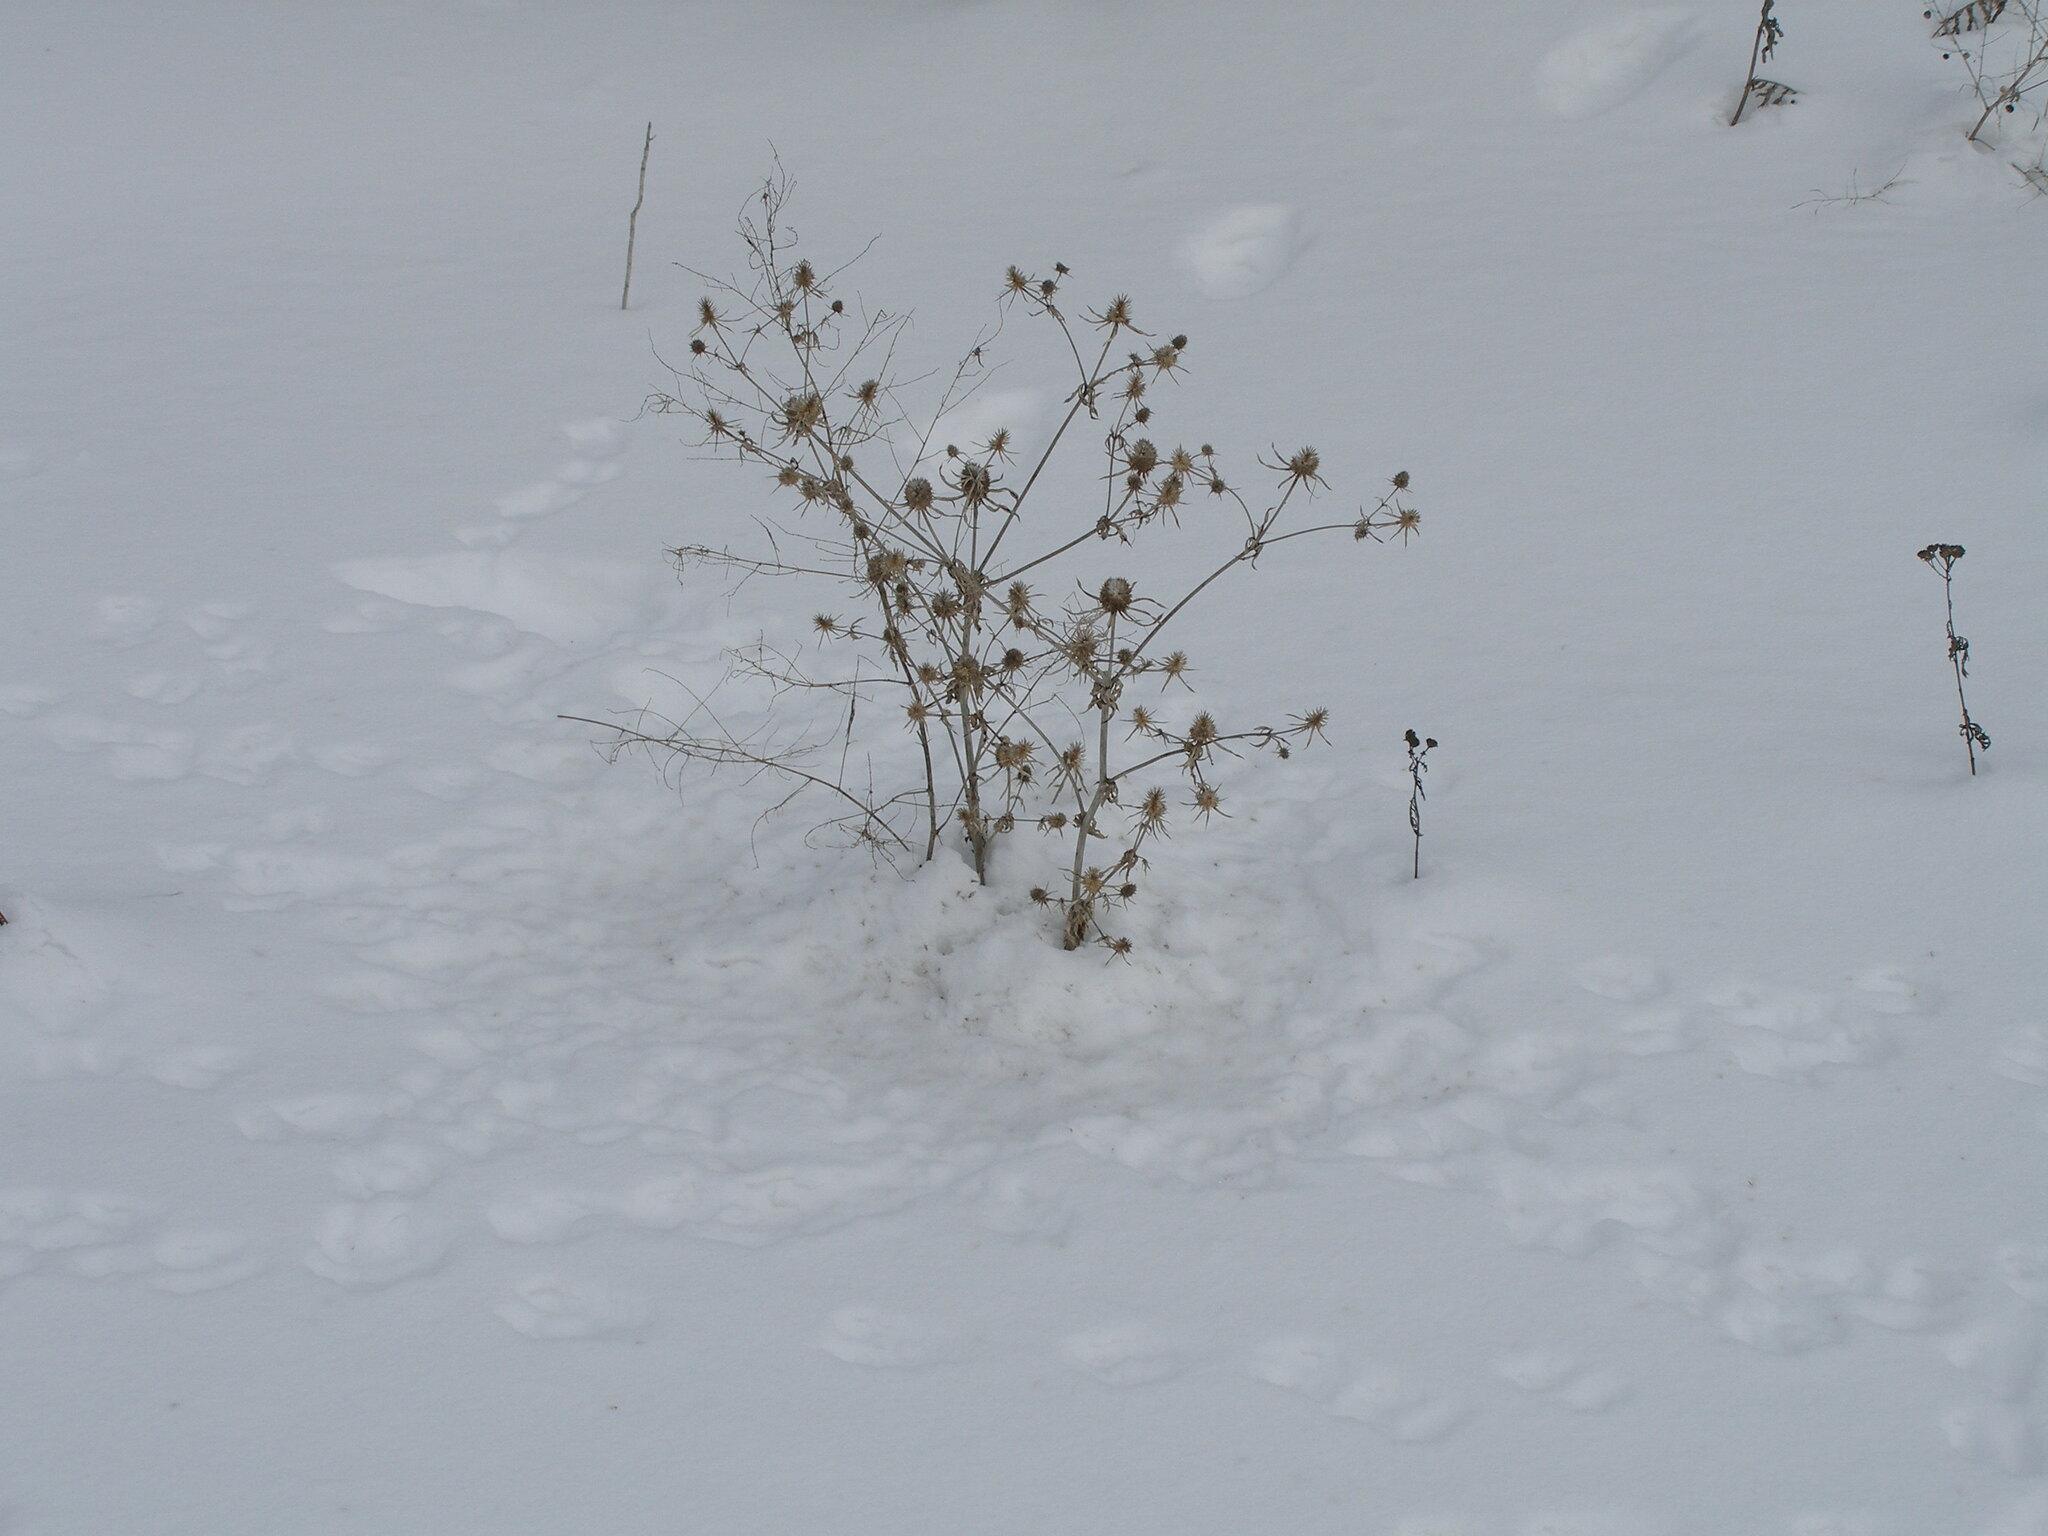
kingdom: Plantae
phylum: Tracheophyta
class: Magnoliopsida
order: Apiales
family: Apiaceae
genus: Eryngium
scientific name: Eryngium planum
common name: Blue eryngo
